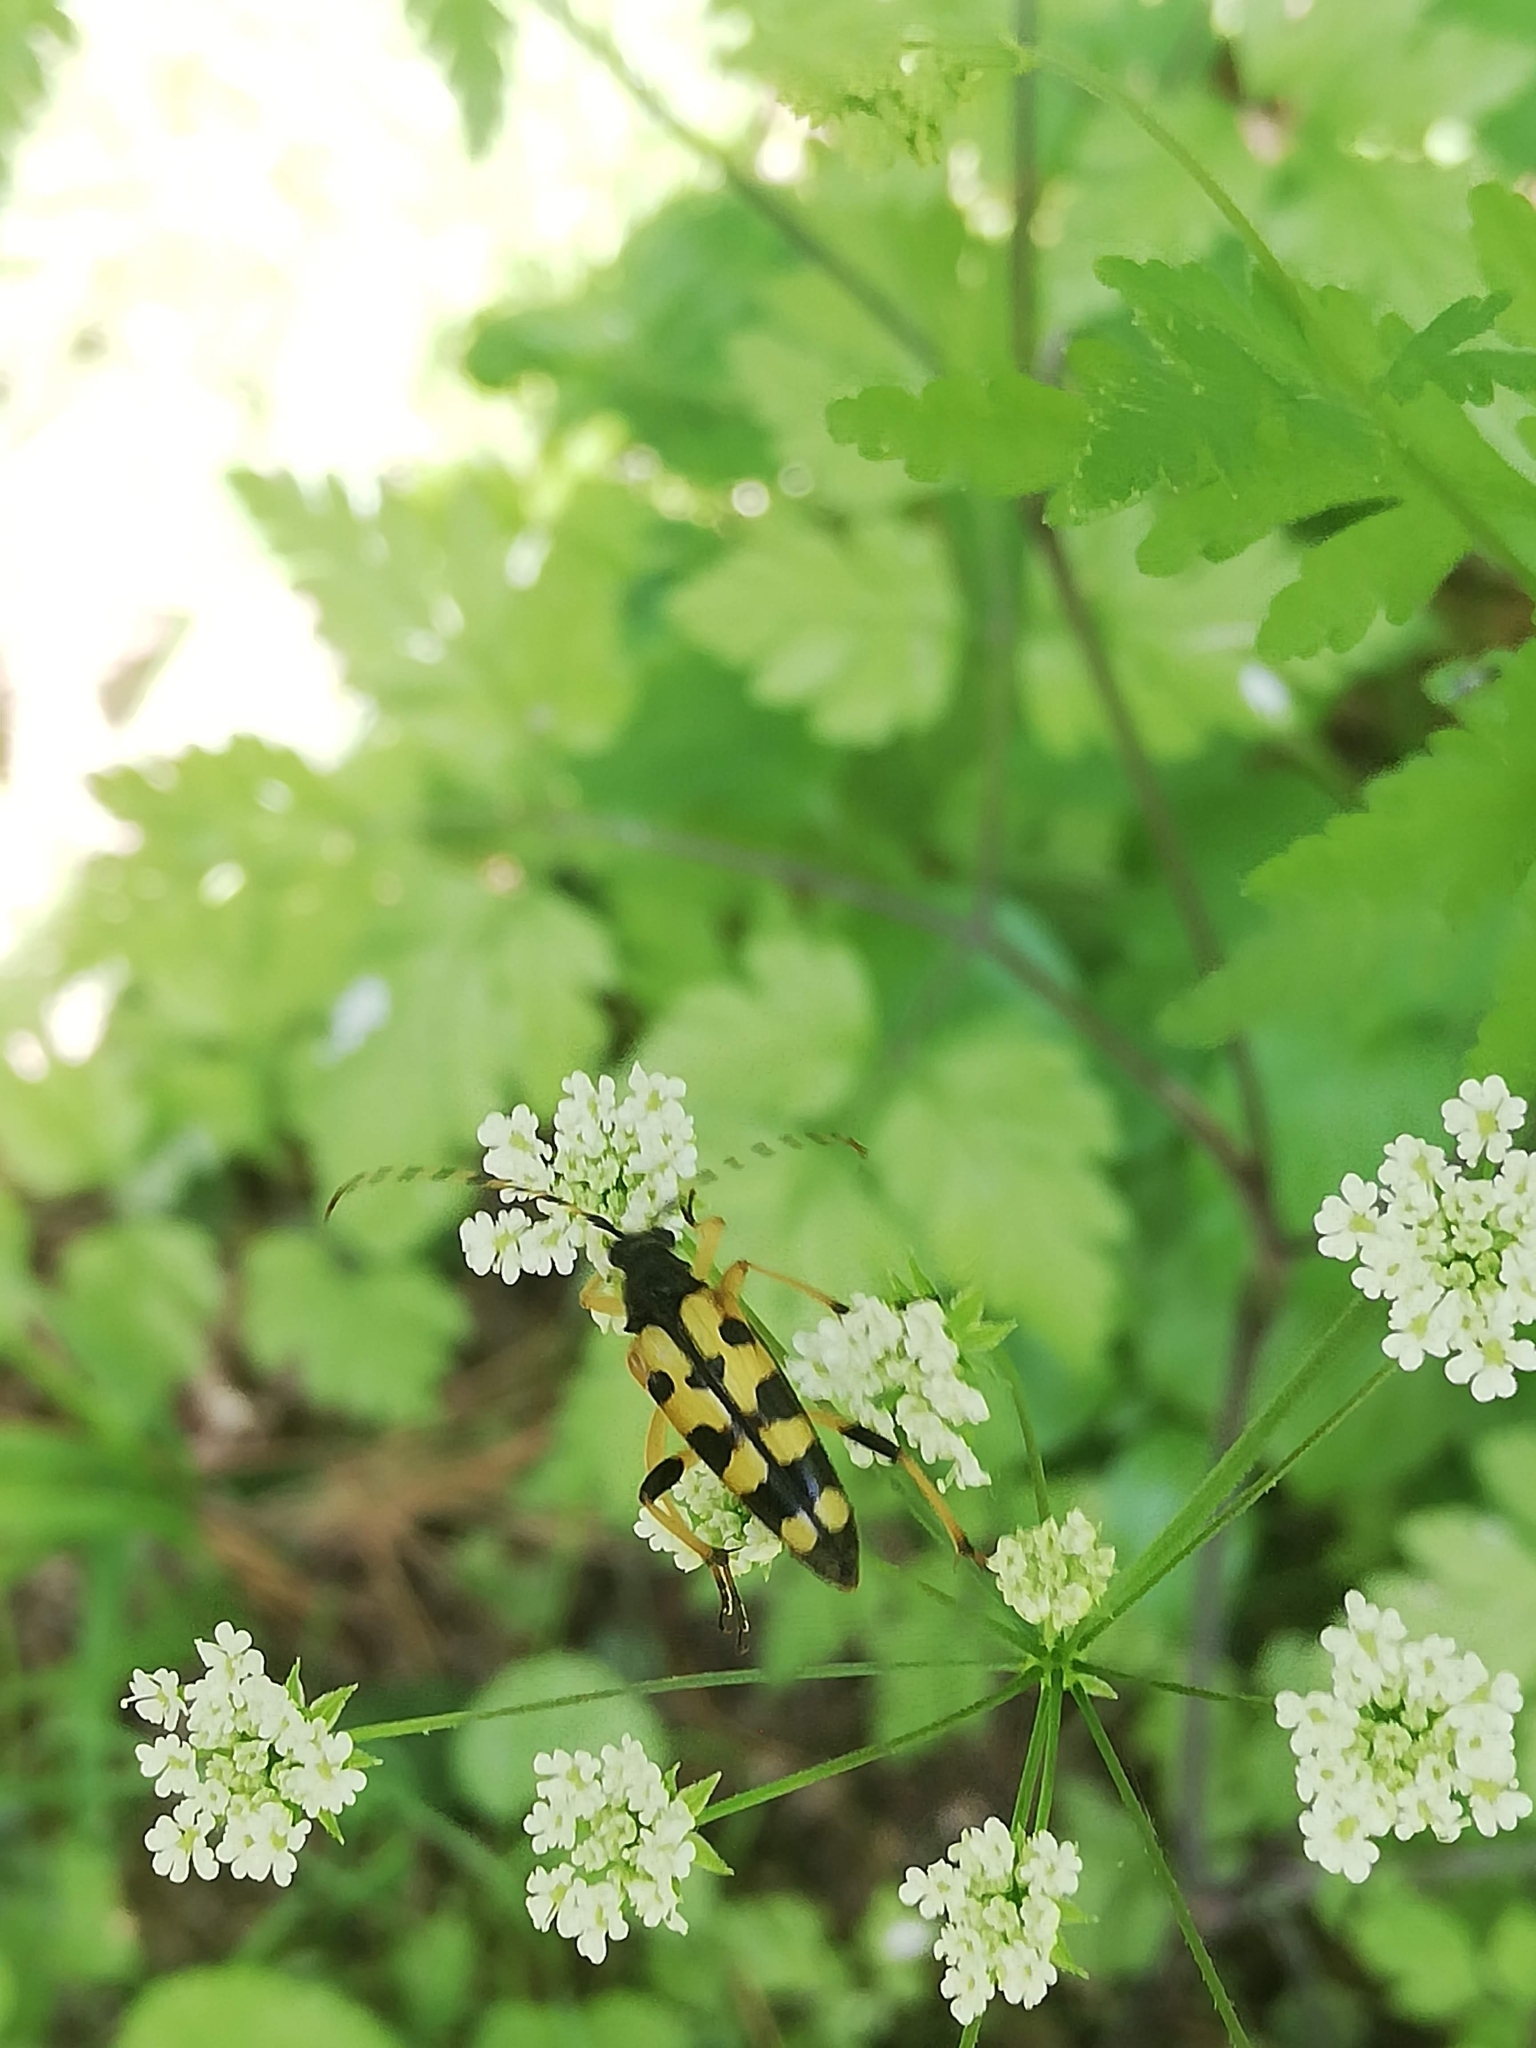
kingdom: Animalia
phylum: Arthropoda
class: Insecta
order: Coleoptera
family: Cerambycidae
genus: Rutpela
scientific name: Rutpela maculata
